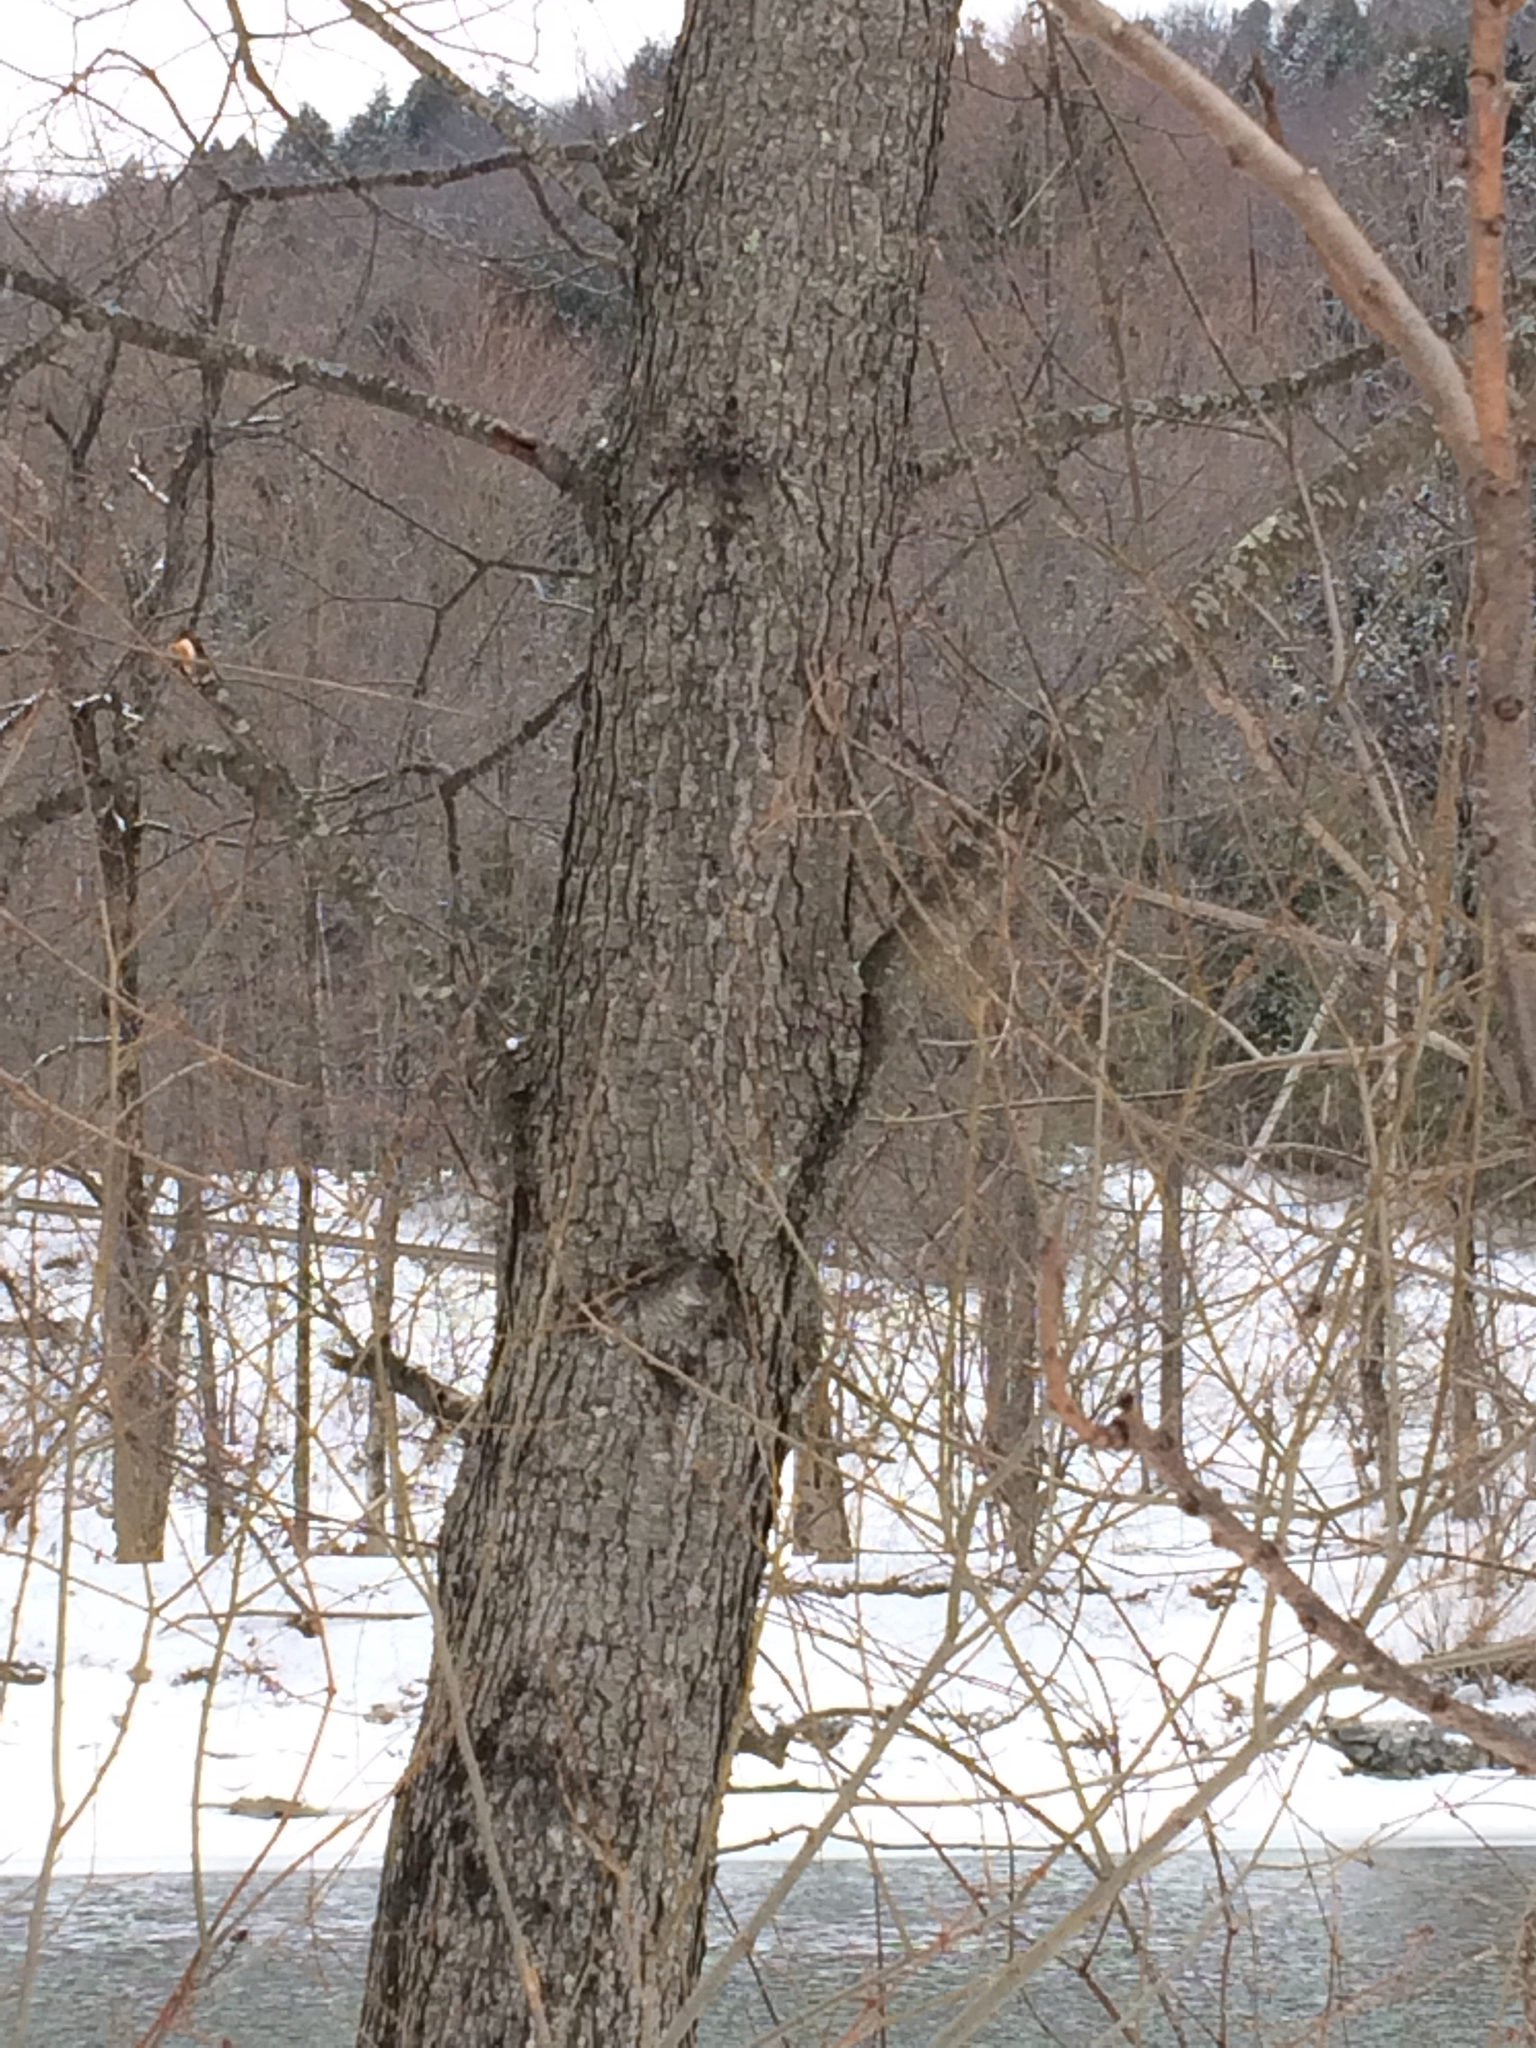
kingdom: Plantae
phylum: Tracheophyta
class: Magnoliopsida
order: Rosales
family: Rosaceae
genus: Prunus
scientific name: Prunus serotina
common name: Black cherry
